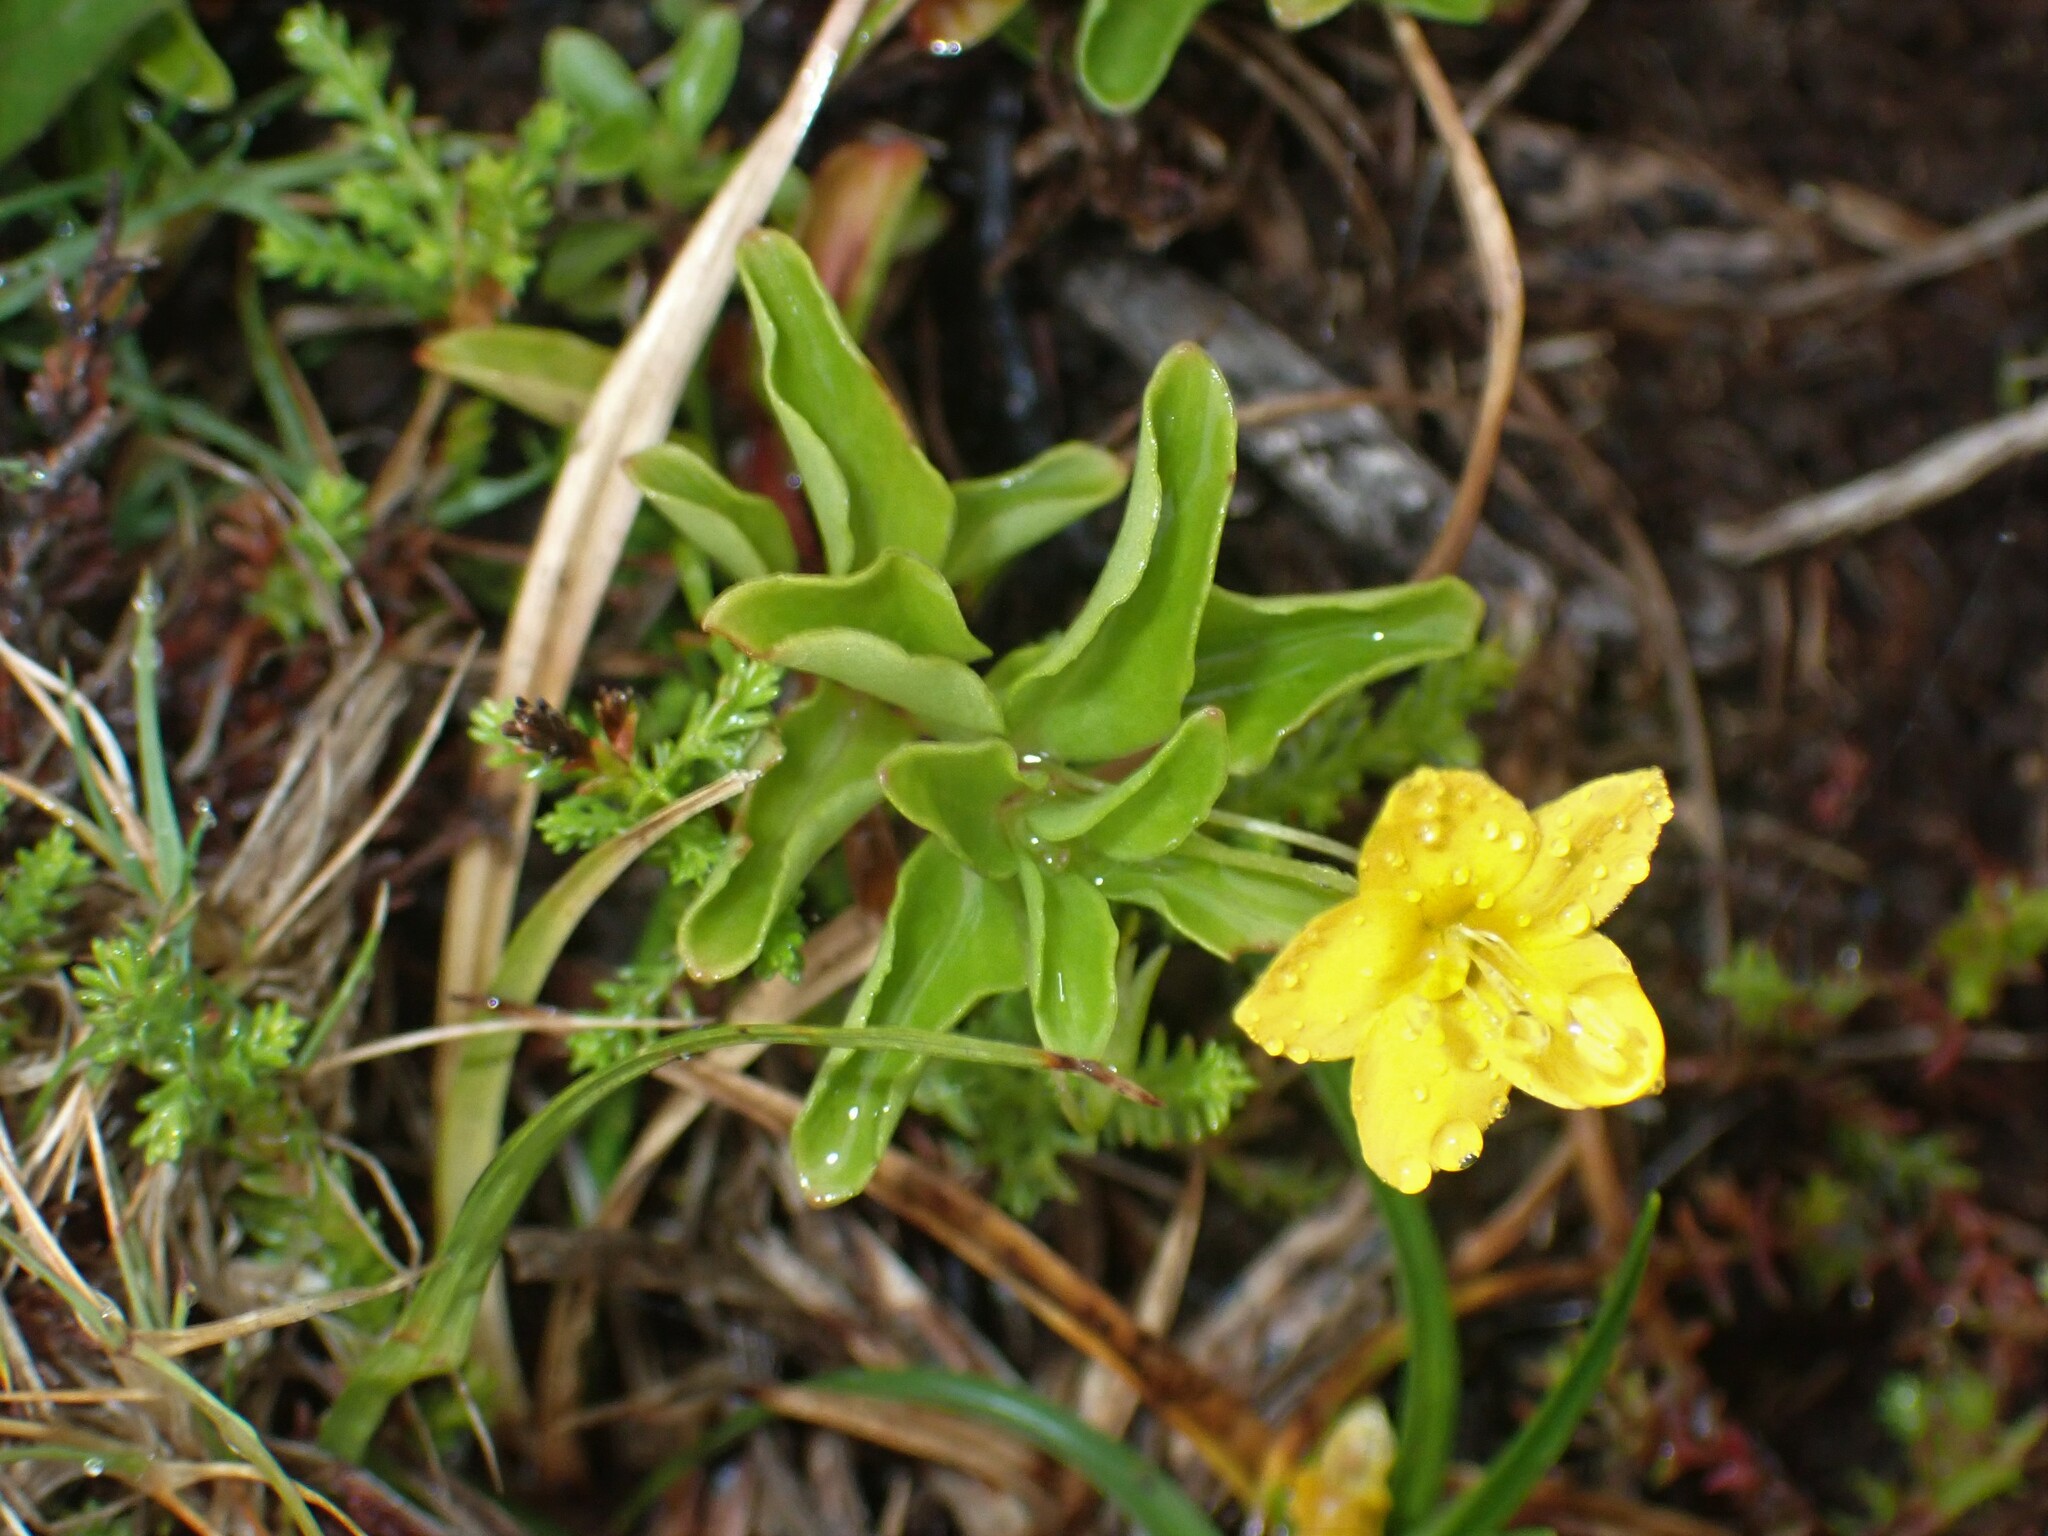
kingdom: Plantae
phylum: Tracheophyta
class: Magnoliopsida
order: Ericales
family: Primulaceae
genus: Lysimachia
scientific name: Lysimachia azorica
